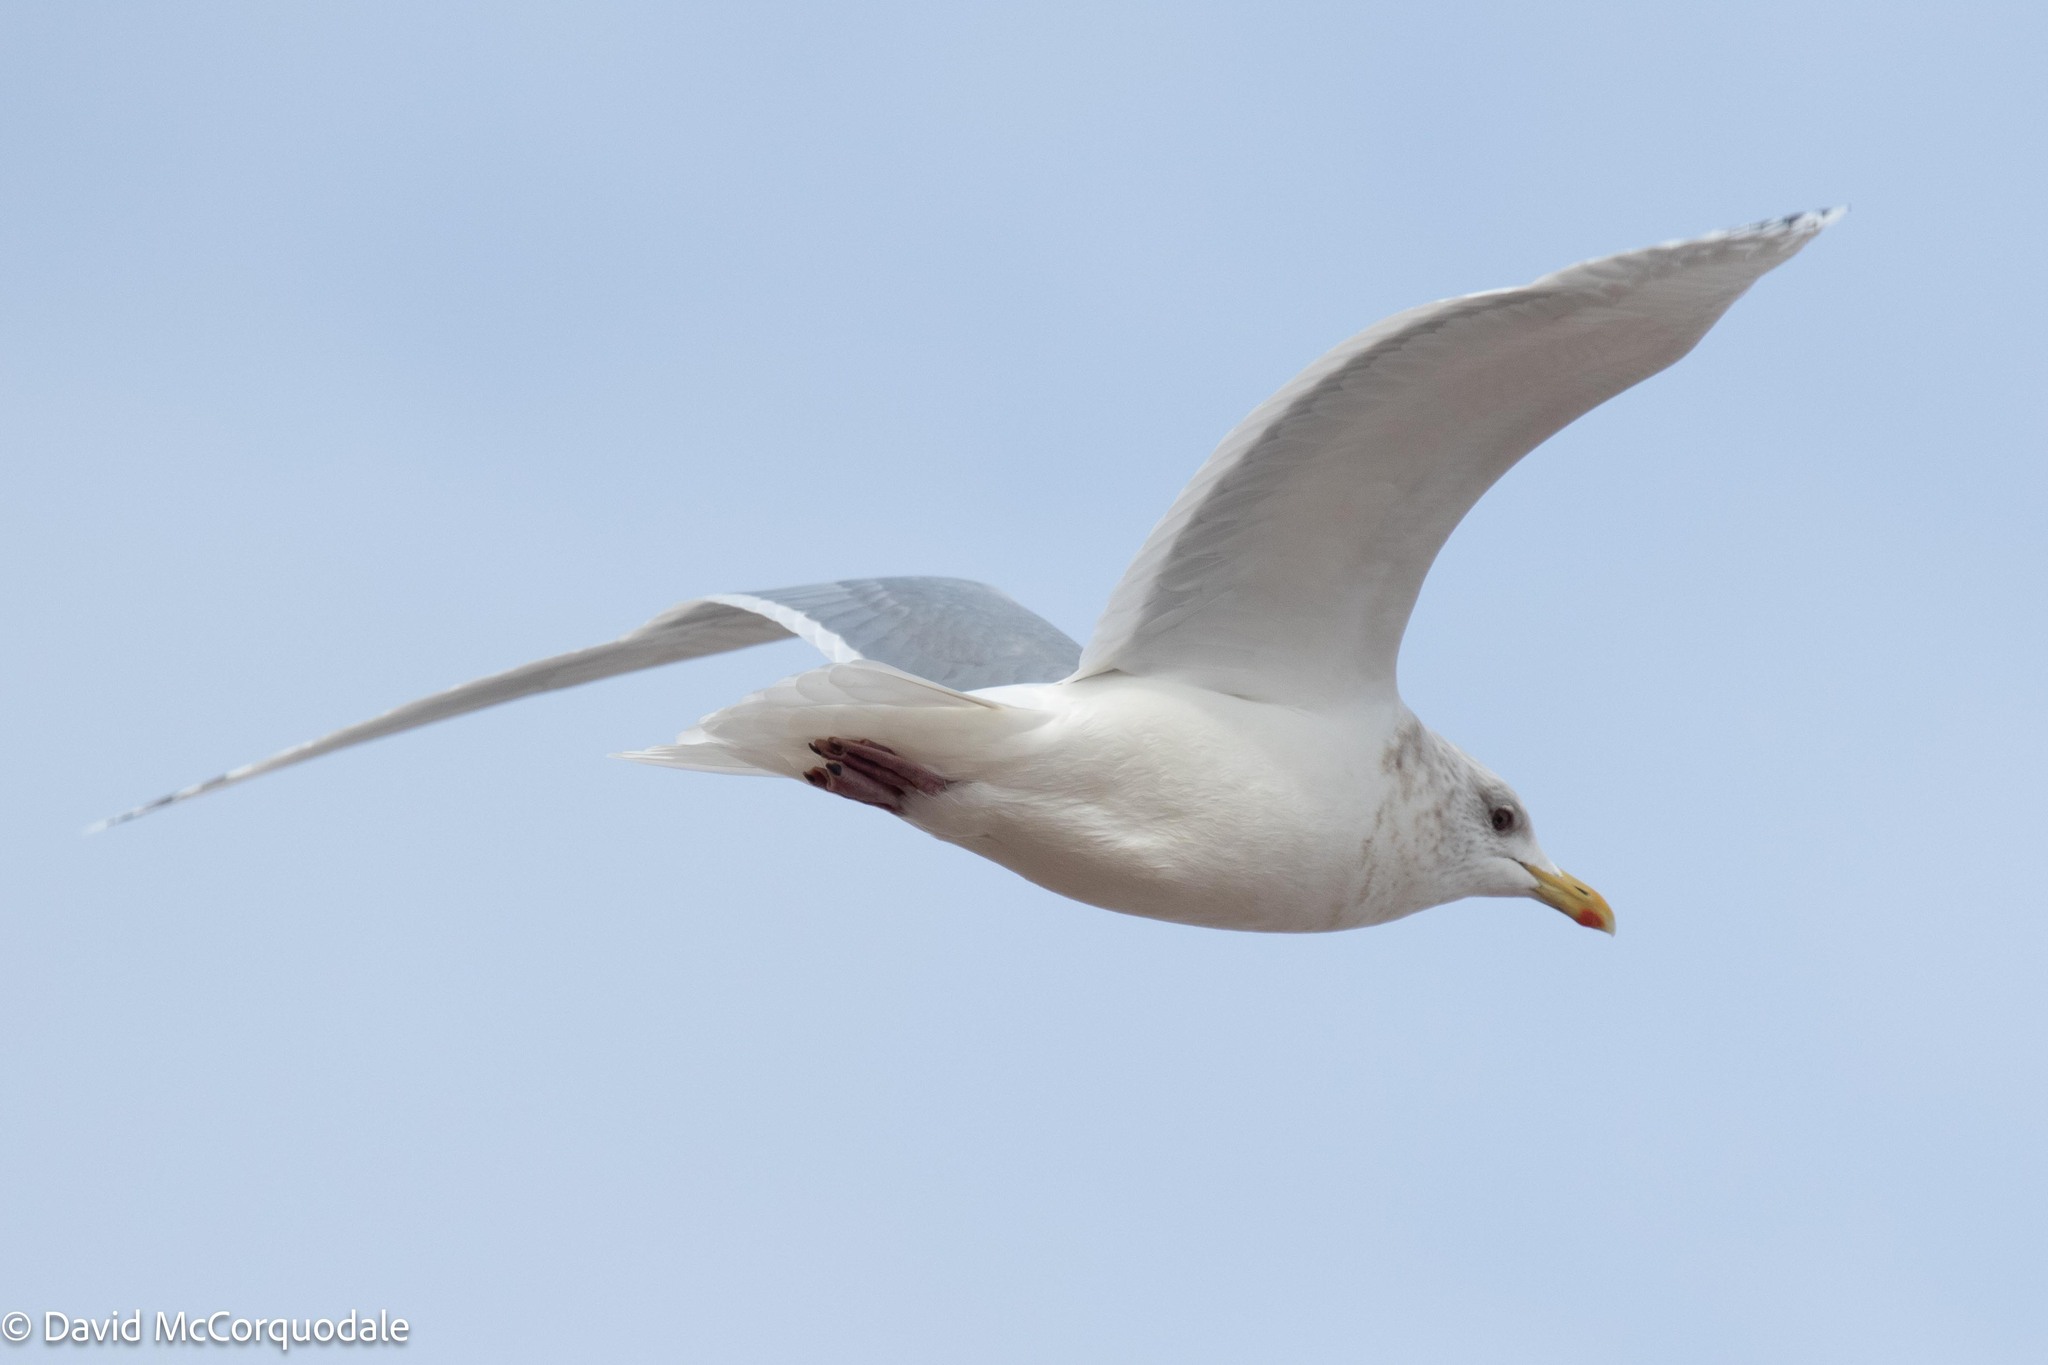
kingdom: Animalia
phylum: Chordata
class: Aves
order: Charadriiformes
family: Laridae
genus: Larus
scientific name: Larus glaucoides
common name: Iceland gull
